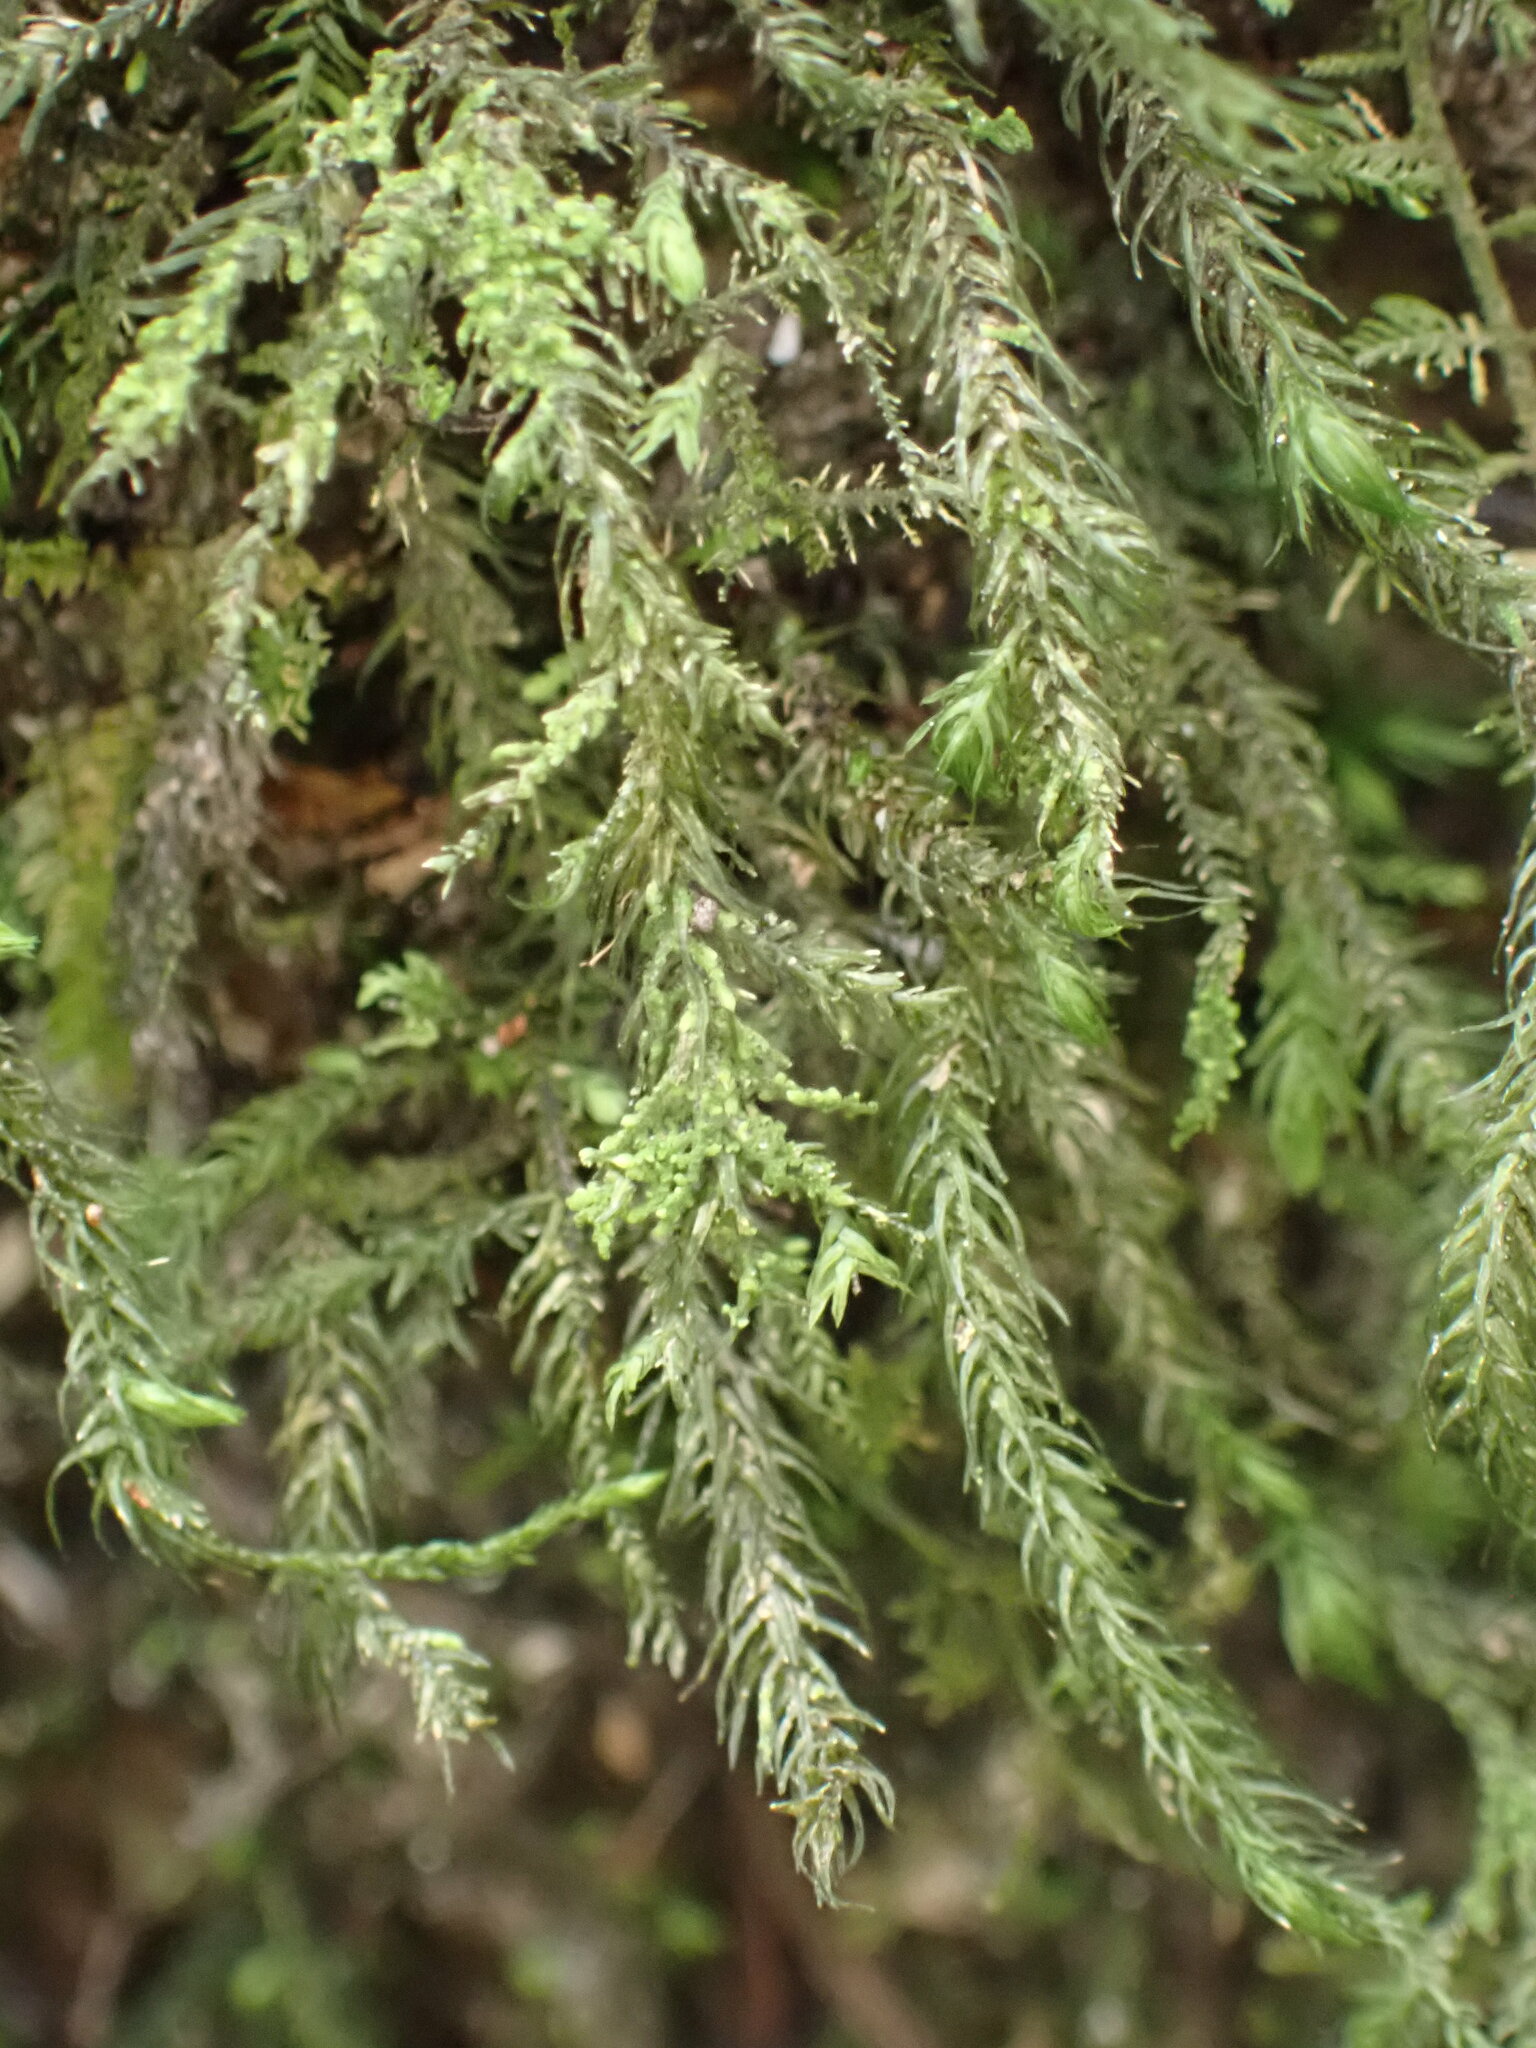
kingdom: Plantae
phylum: Bryophyta
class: Bryopsida
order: Hypnales
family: Neckeraceae
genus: Echinodiopsis
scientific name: Echinodiopsis hispida
